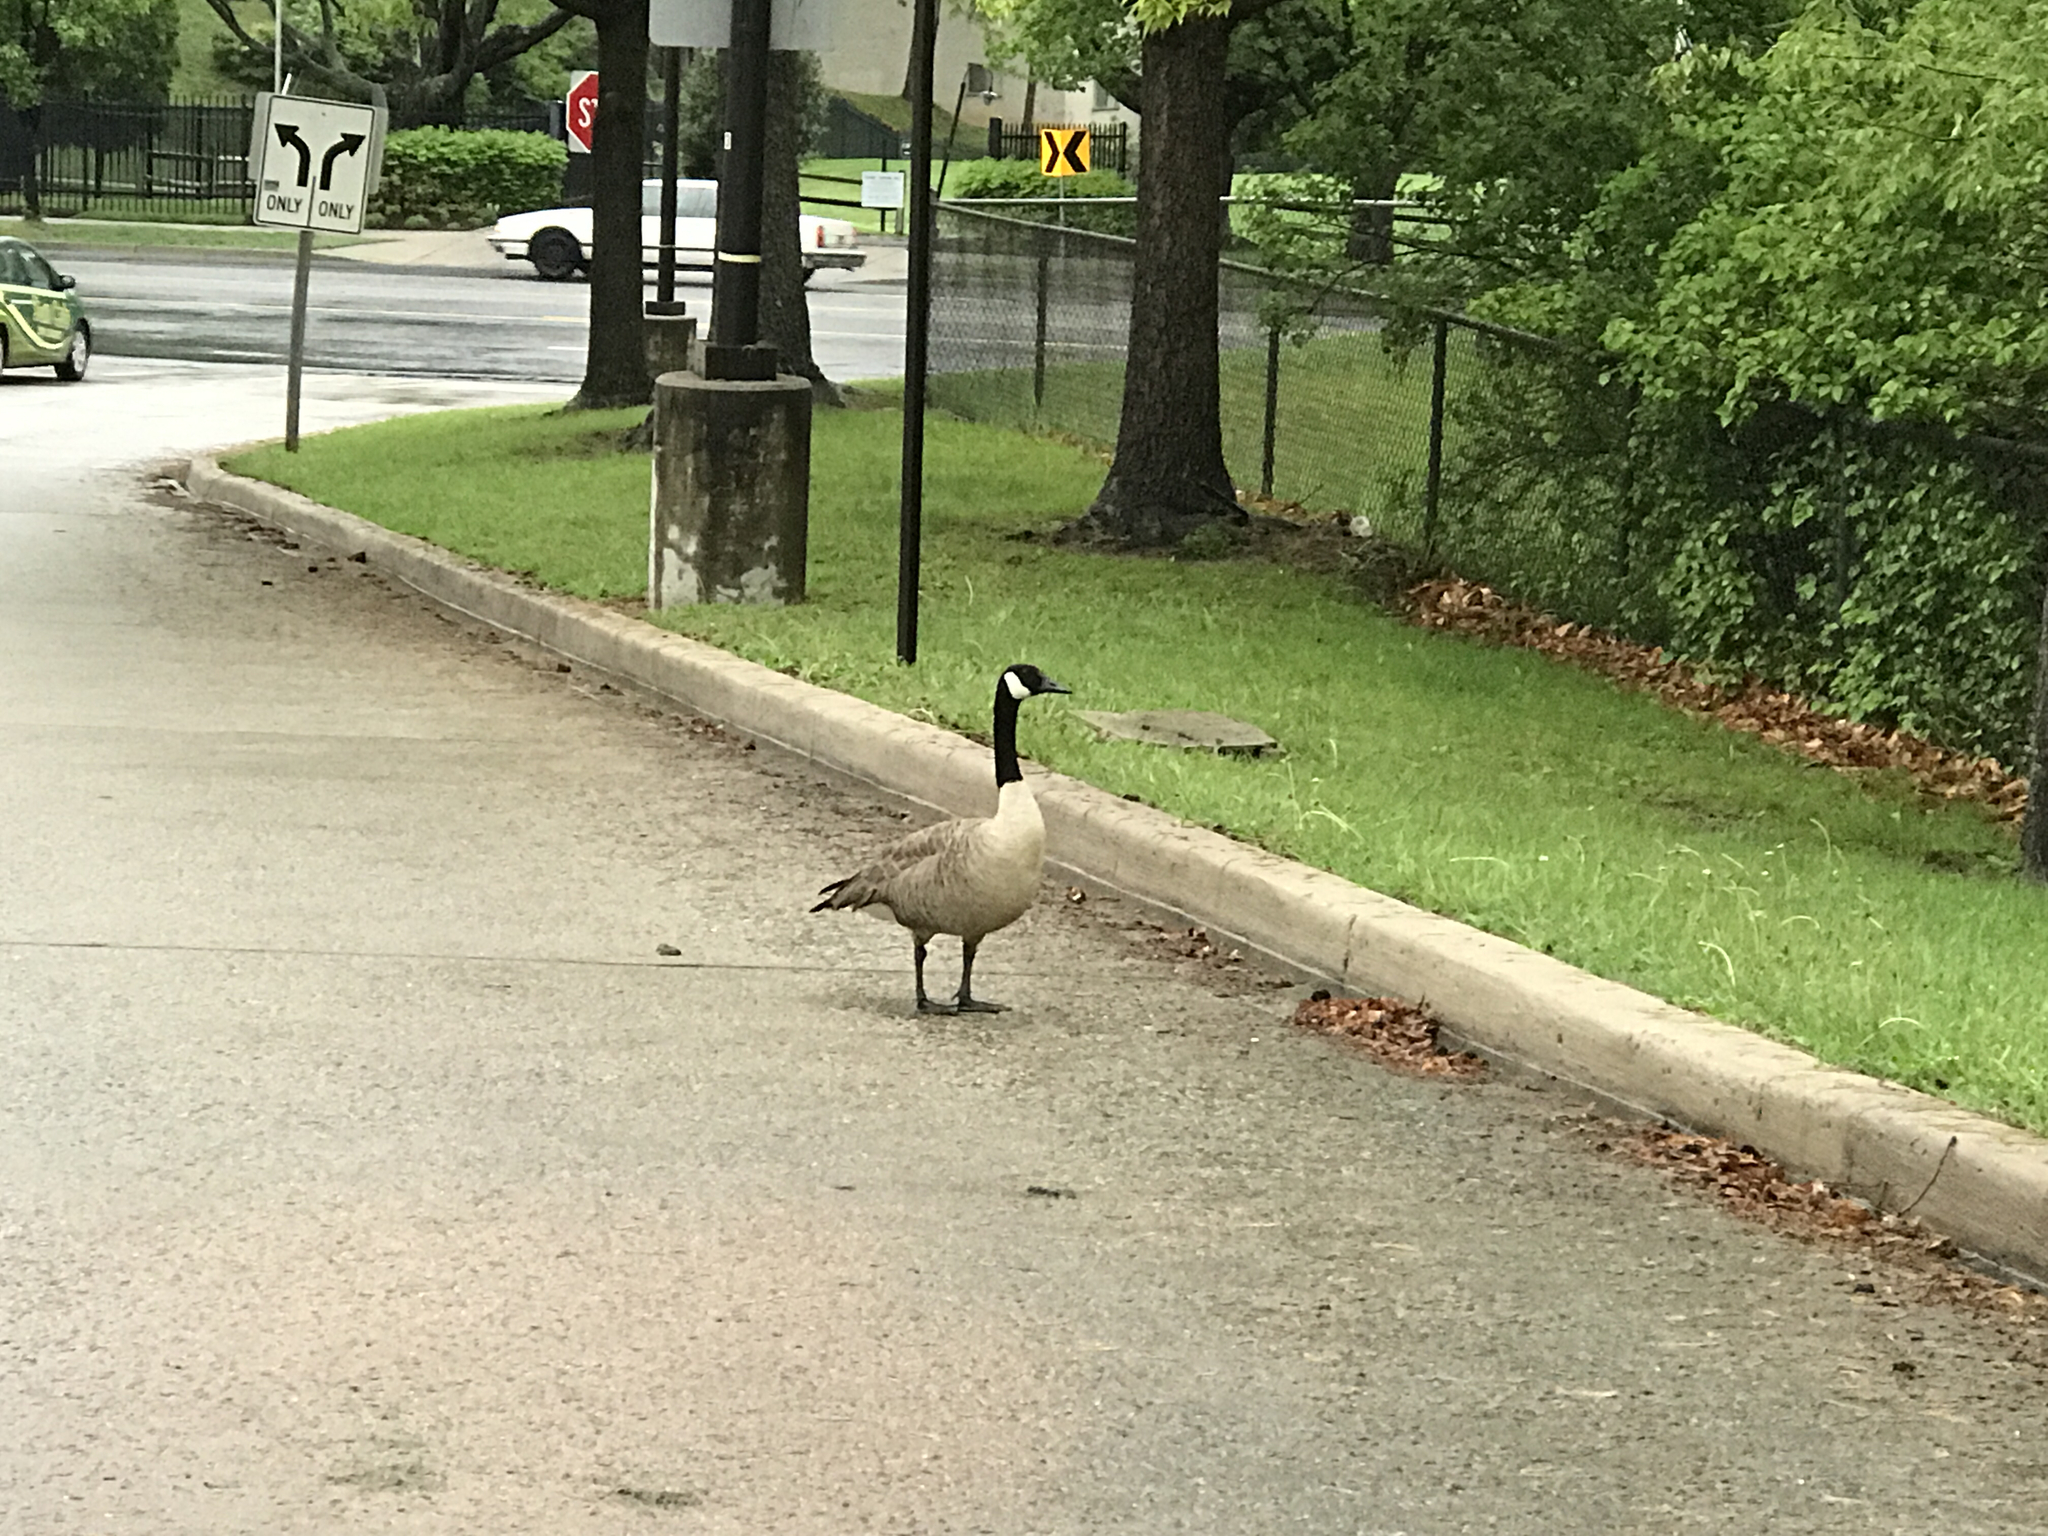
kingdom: Animalia
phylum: Chordata
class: Aves
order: Anseriformes
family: Anatidae
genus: Branta
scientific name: Branta canadensis
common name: Canada goose
